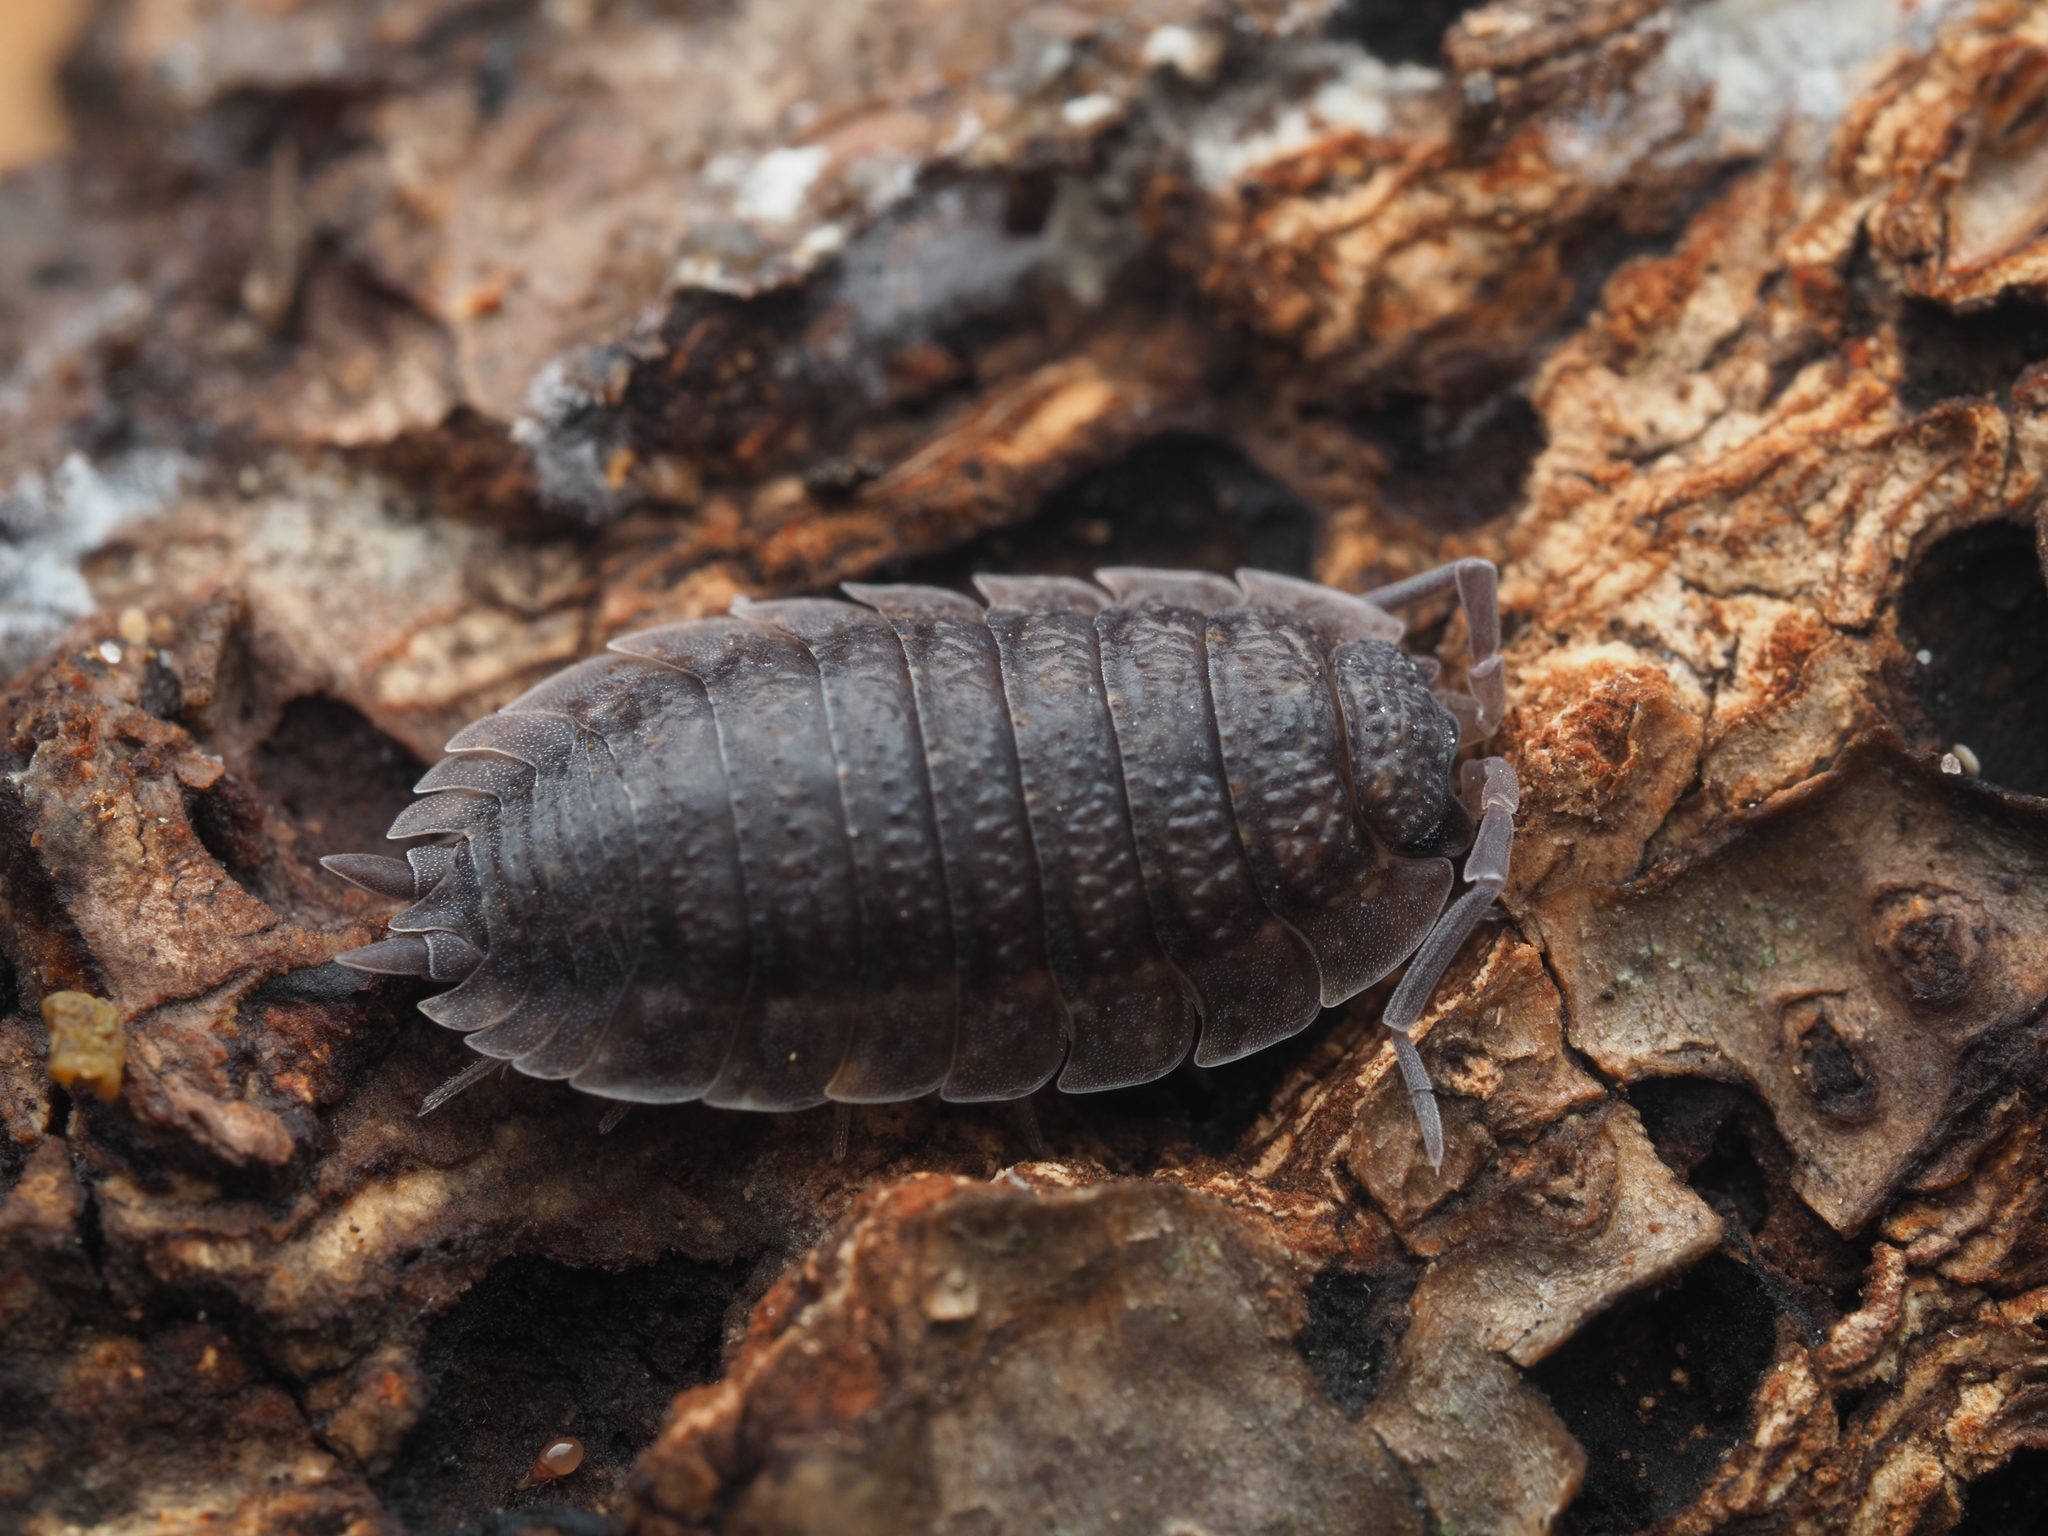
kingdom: Animalia
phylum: Arthropoda
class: Malacostraca
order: Isopoda
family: Porcellionidae
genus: Porcellio
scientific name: Porcellio scaber
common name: Common rough woodlouse
